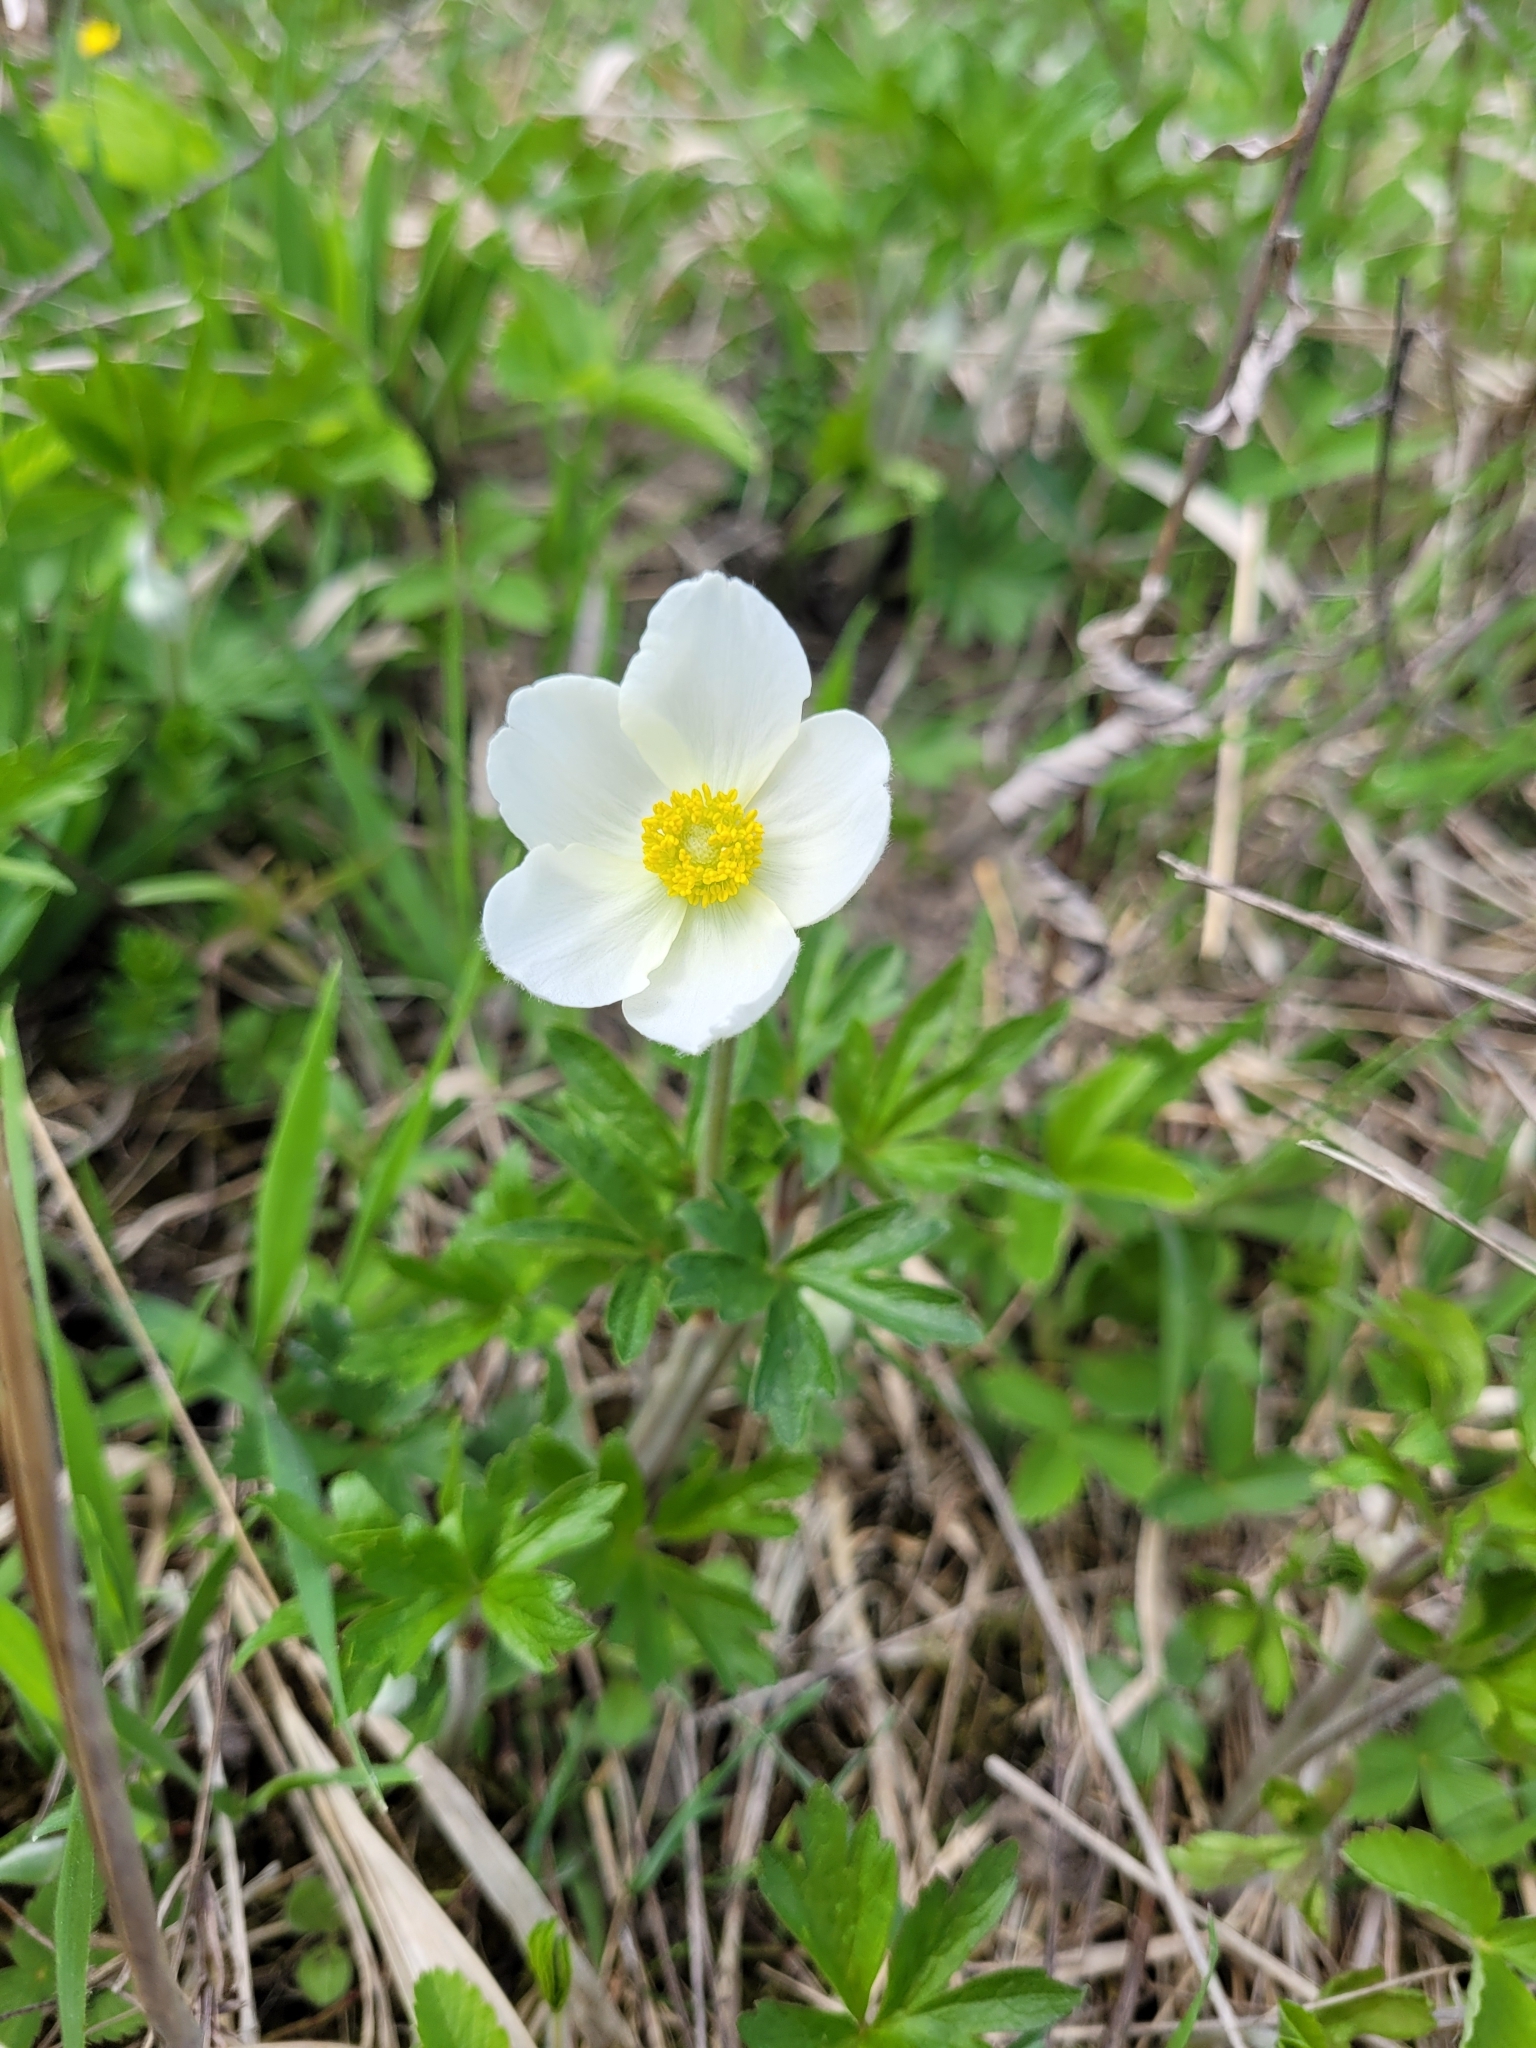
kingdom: Plantae
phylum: Tracheophyta
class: Magnoliopsida
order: Ranunculales
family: Ranunculaceae
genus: Anemone
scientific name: Anemone sylvestris
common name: Snowdrop anemone
